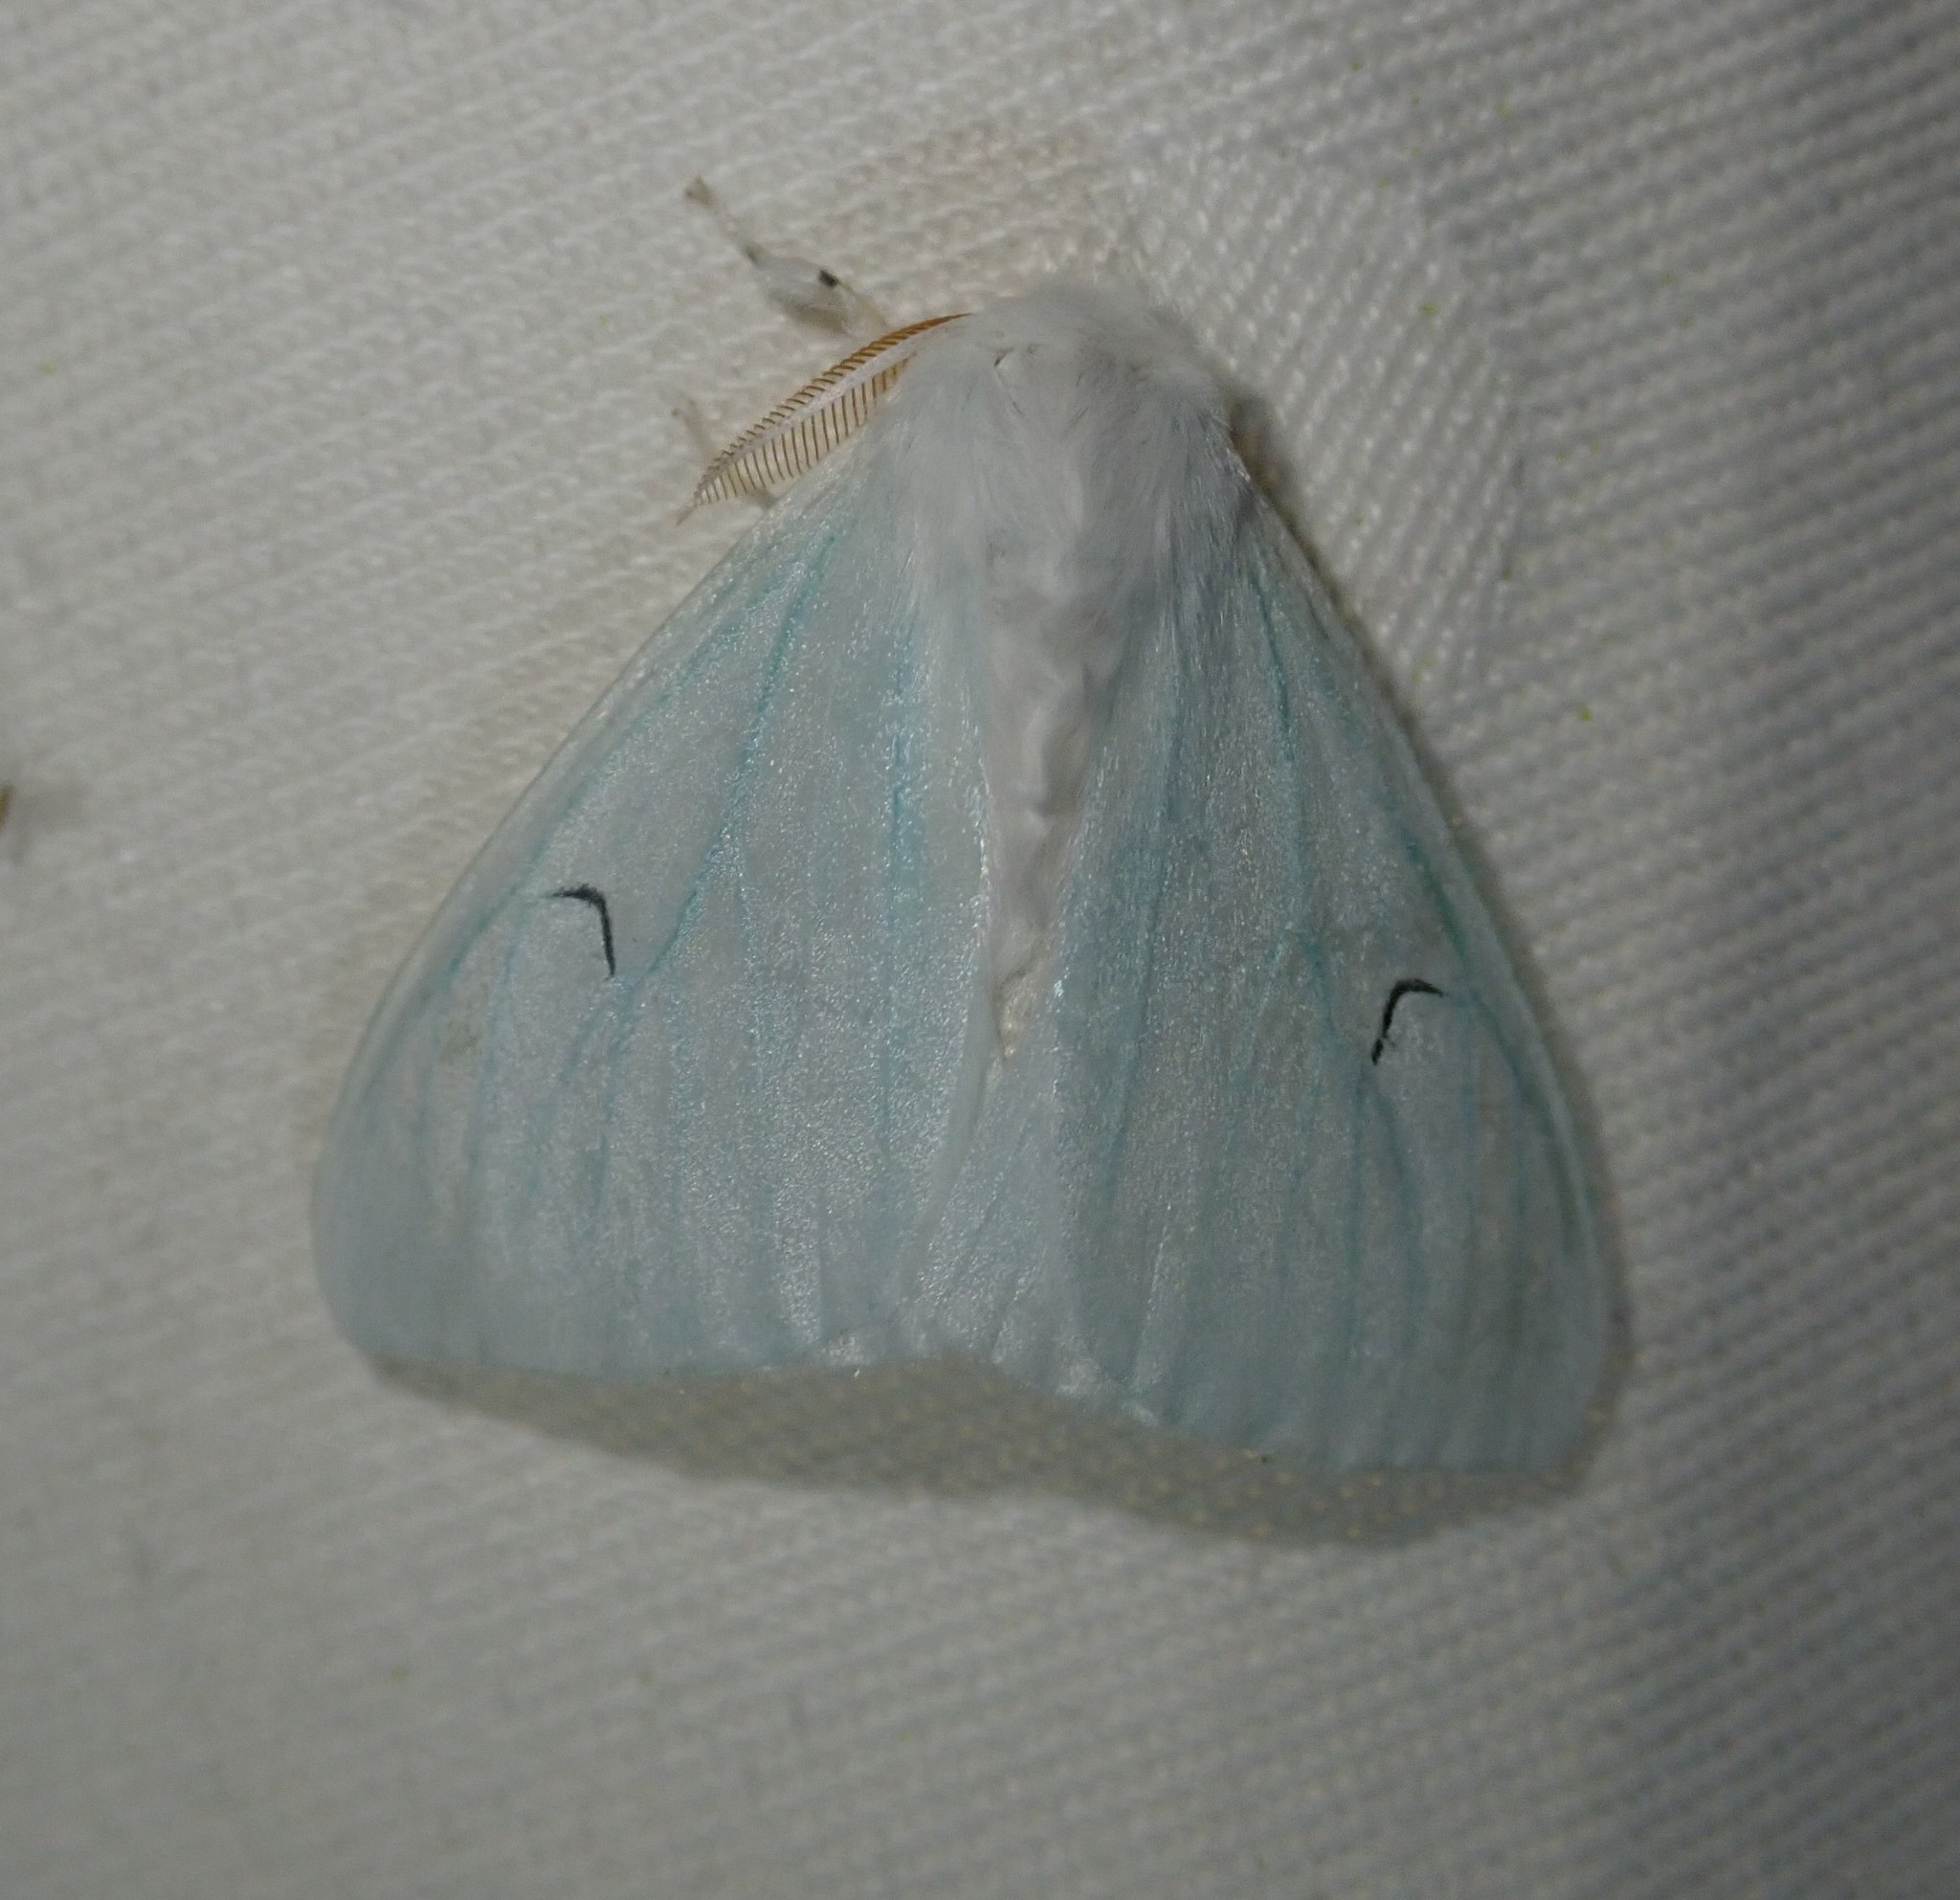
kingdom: Animalia
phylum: Arthropoda
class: Insecta
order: Lepidoptera
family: Erebidae
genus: Arctornis
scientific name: Arctornis l-nigrum
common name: Black v moth
